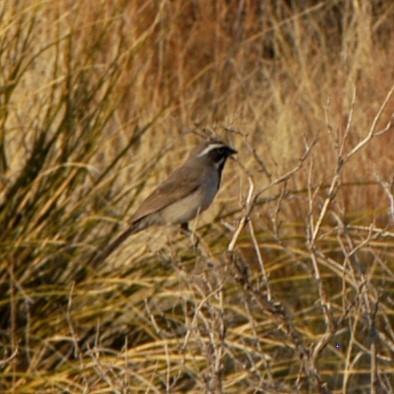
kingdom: Animalia
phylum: Chordata
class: Aves
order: Passeriformes
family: Passerellidae
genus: Amphispiza
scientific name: Amphispiza bilineata
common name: Black-throated sparrow
